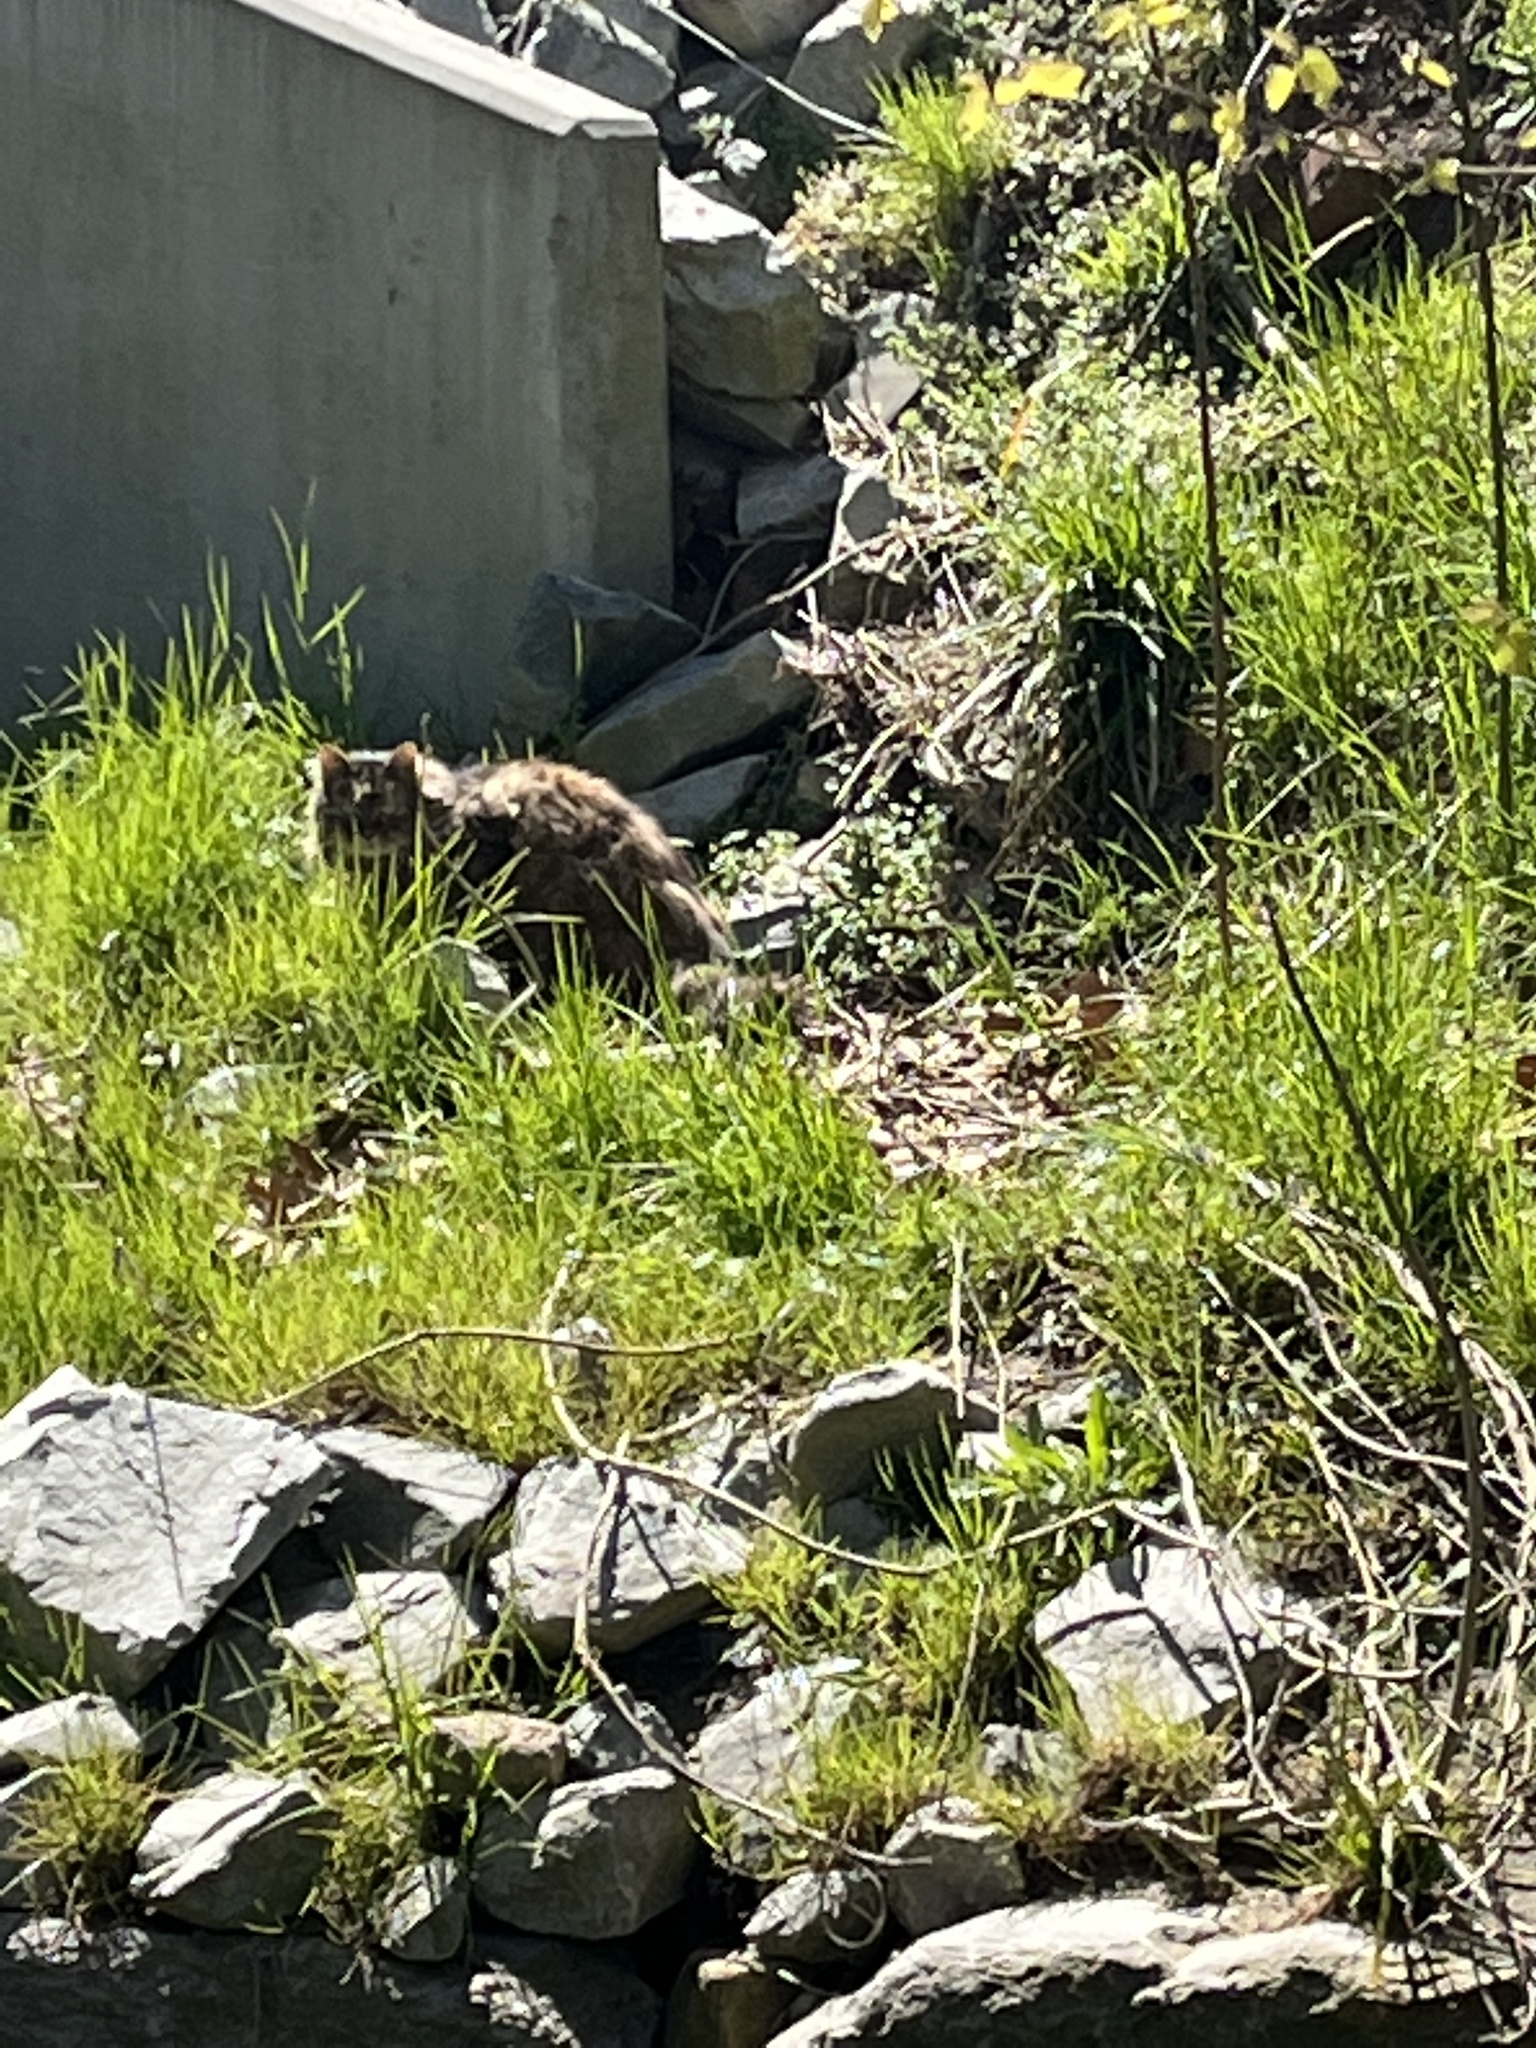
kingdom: Animalia
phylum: Chordata
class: Mammalia
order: Carnivora
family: Felidae
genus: Felis
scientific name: Felis catus
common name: Domestic cat
